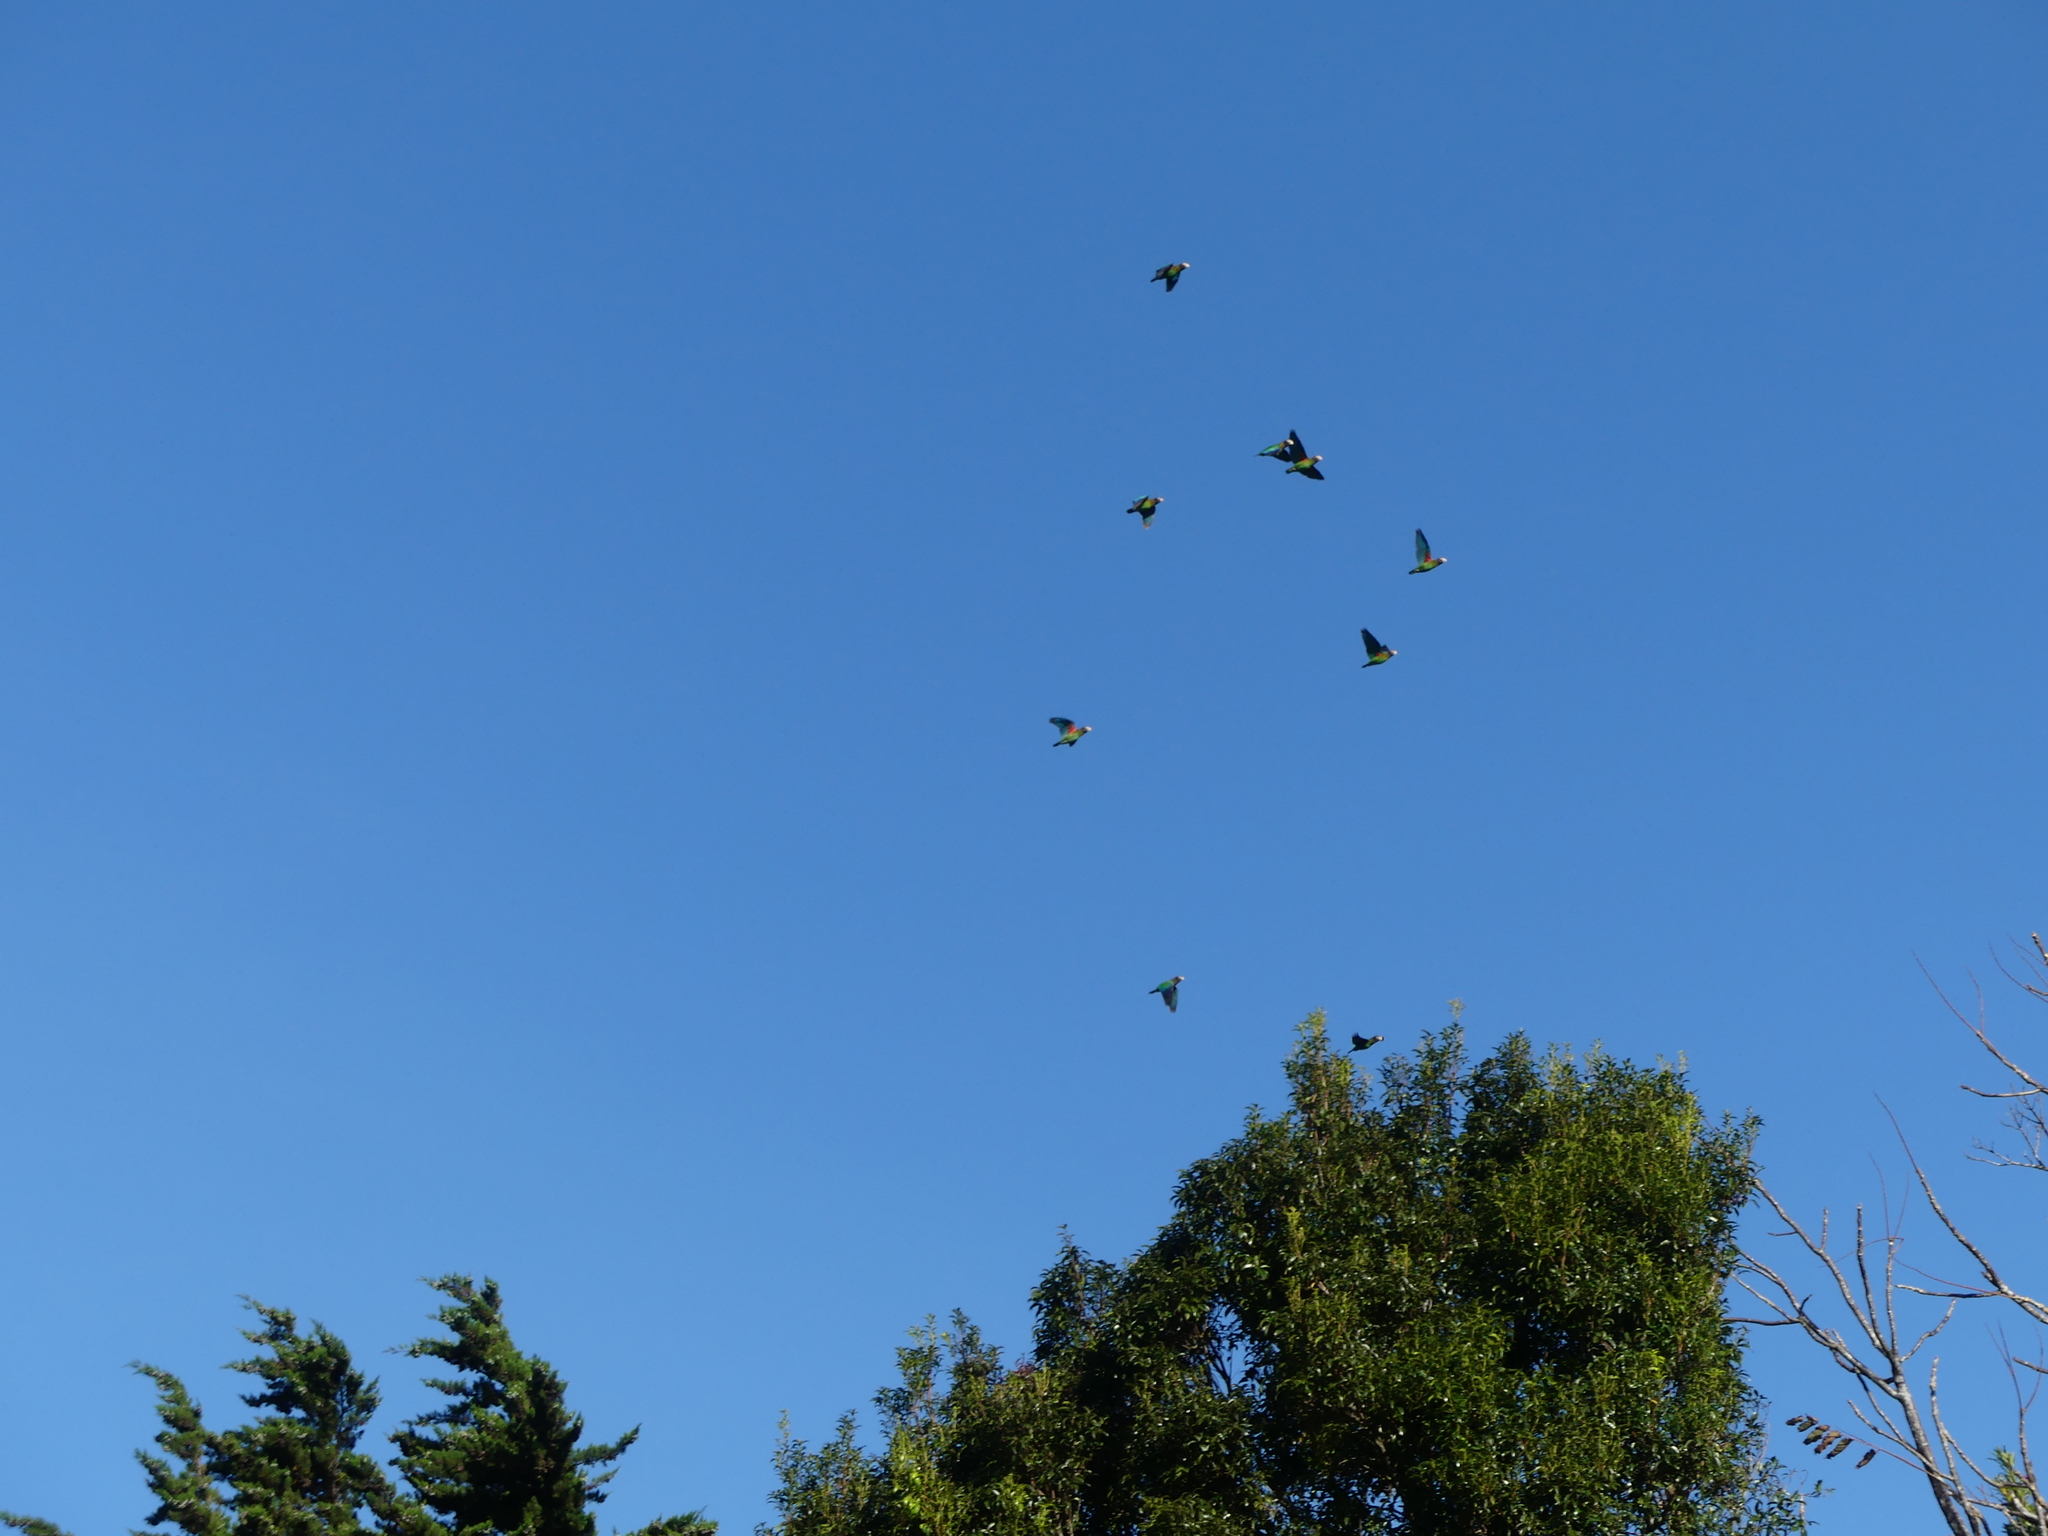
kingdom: Animalia
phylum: Chordata
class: Aves
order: Psittaciformes
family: Psittacidae
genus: Pionopsitta
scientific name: Pionopsitta haematotis
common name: Brown-hooded parrot
